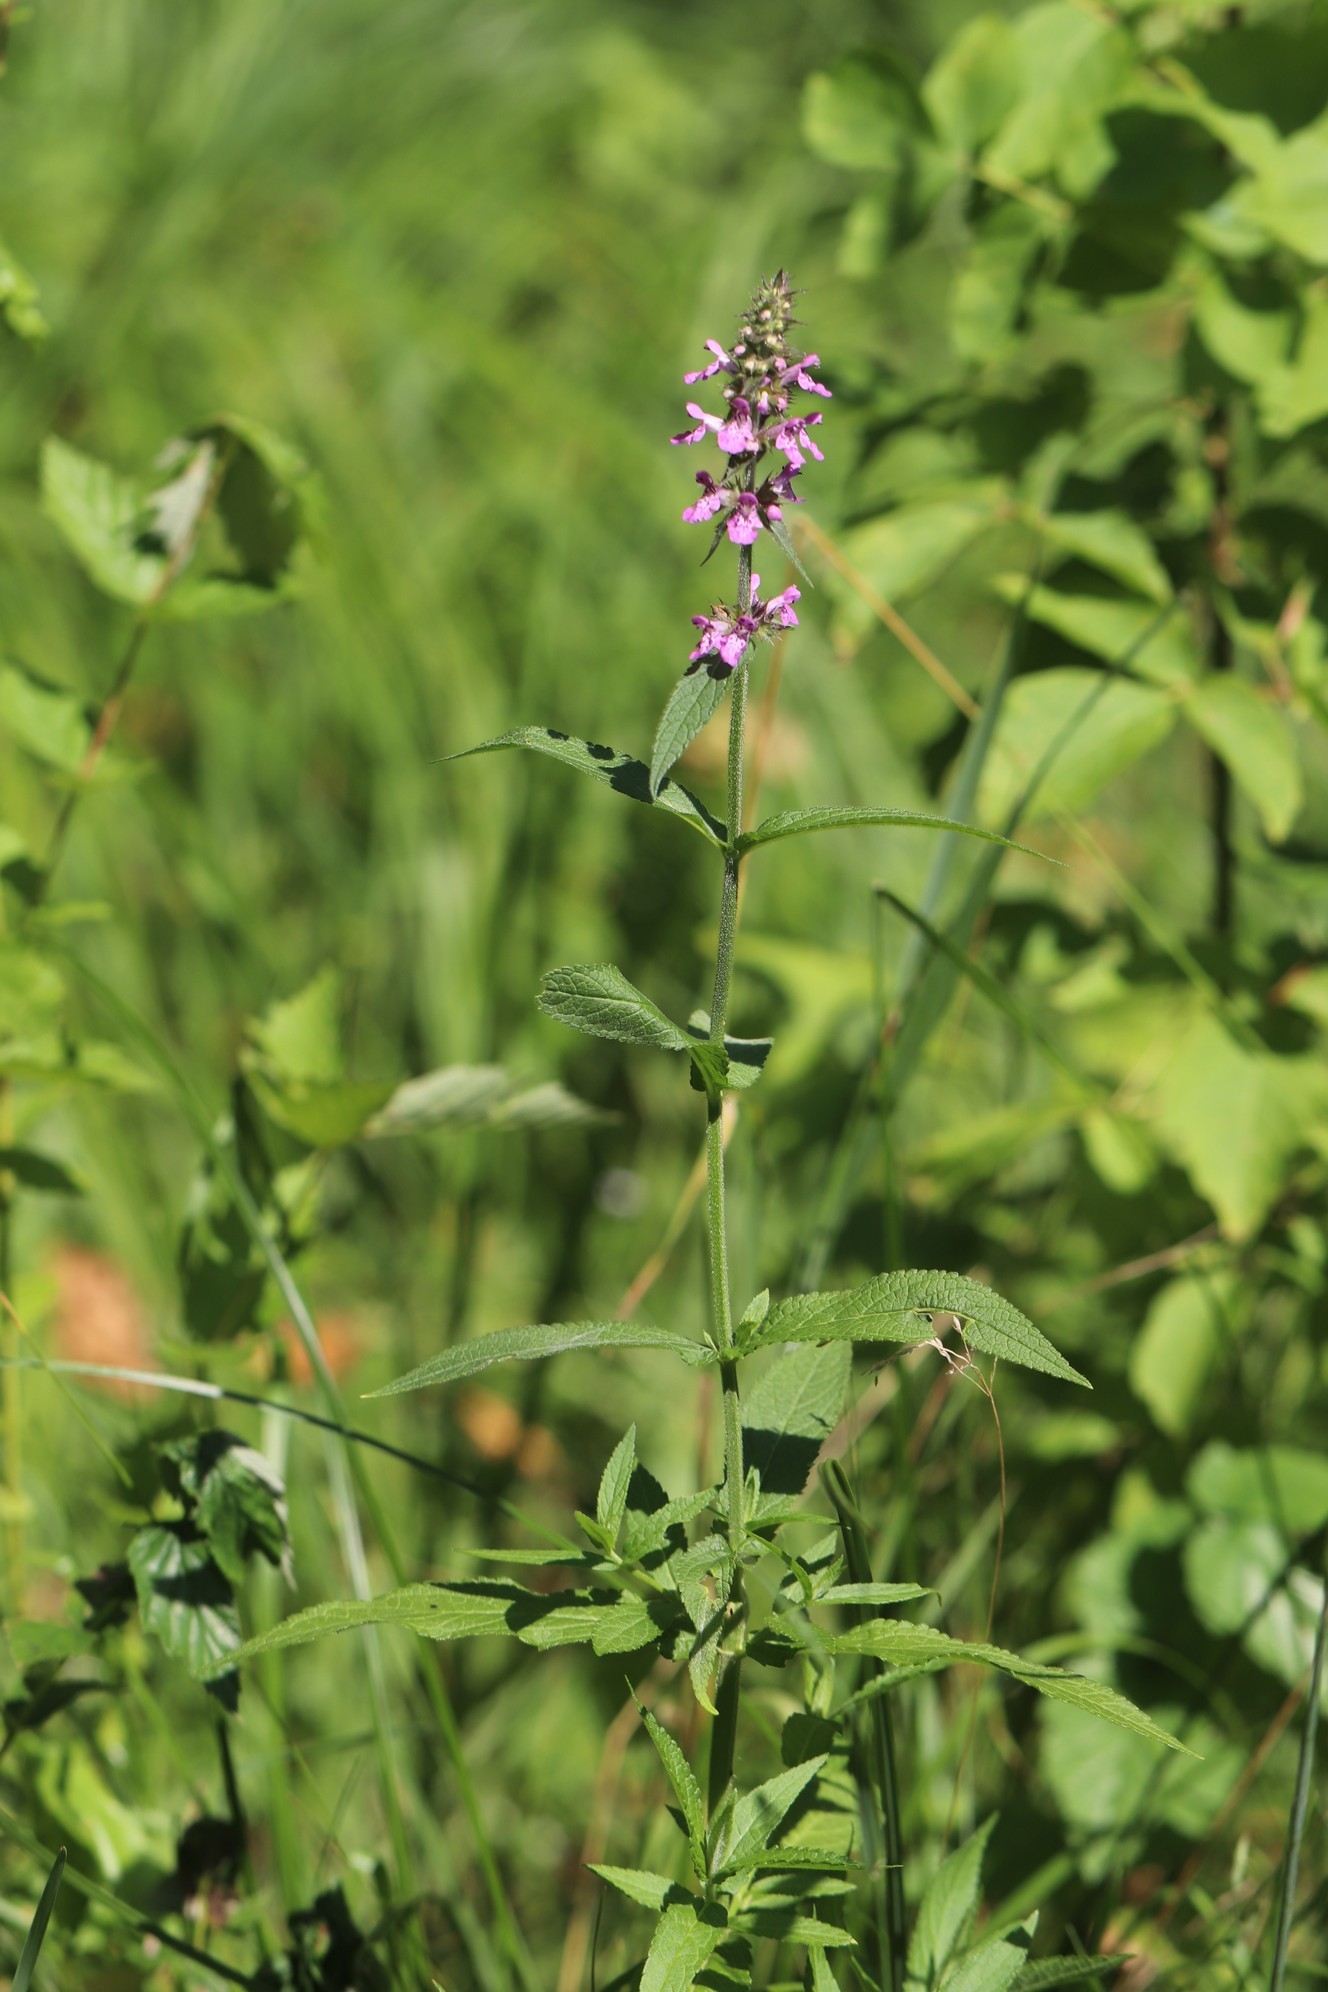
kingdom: Plantae
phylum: Tracheophyta
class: Magnoliopsida
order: Lamiales
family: Lamiaceae
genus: Stachys
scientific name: Stachys palustris
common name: Marsh woundwort
